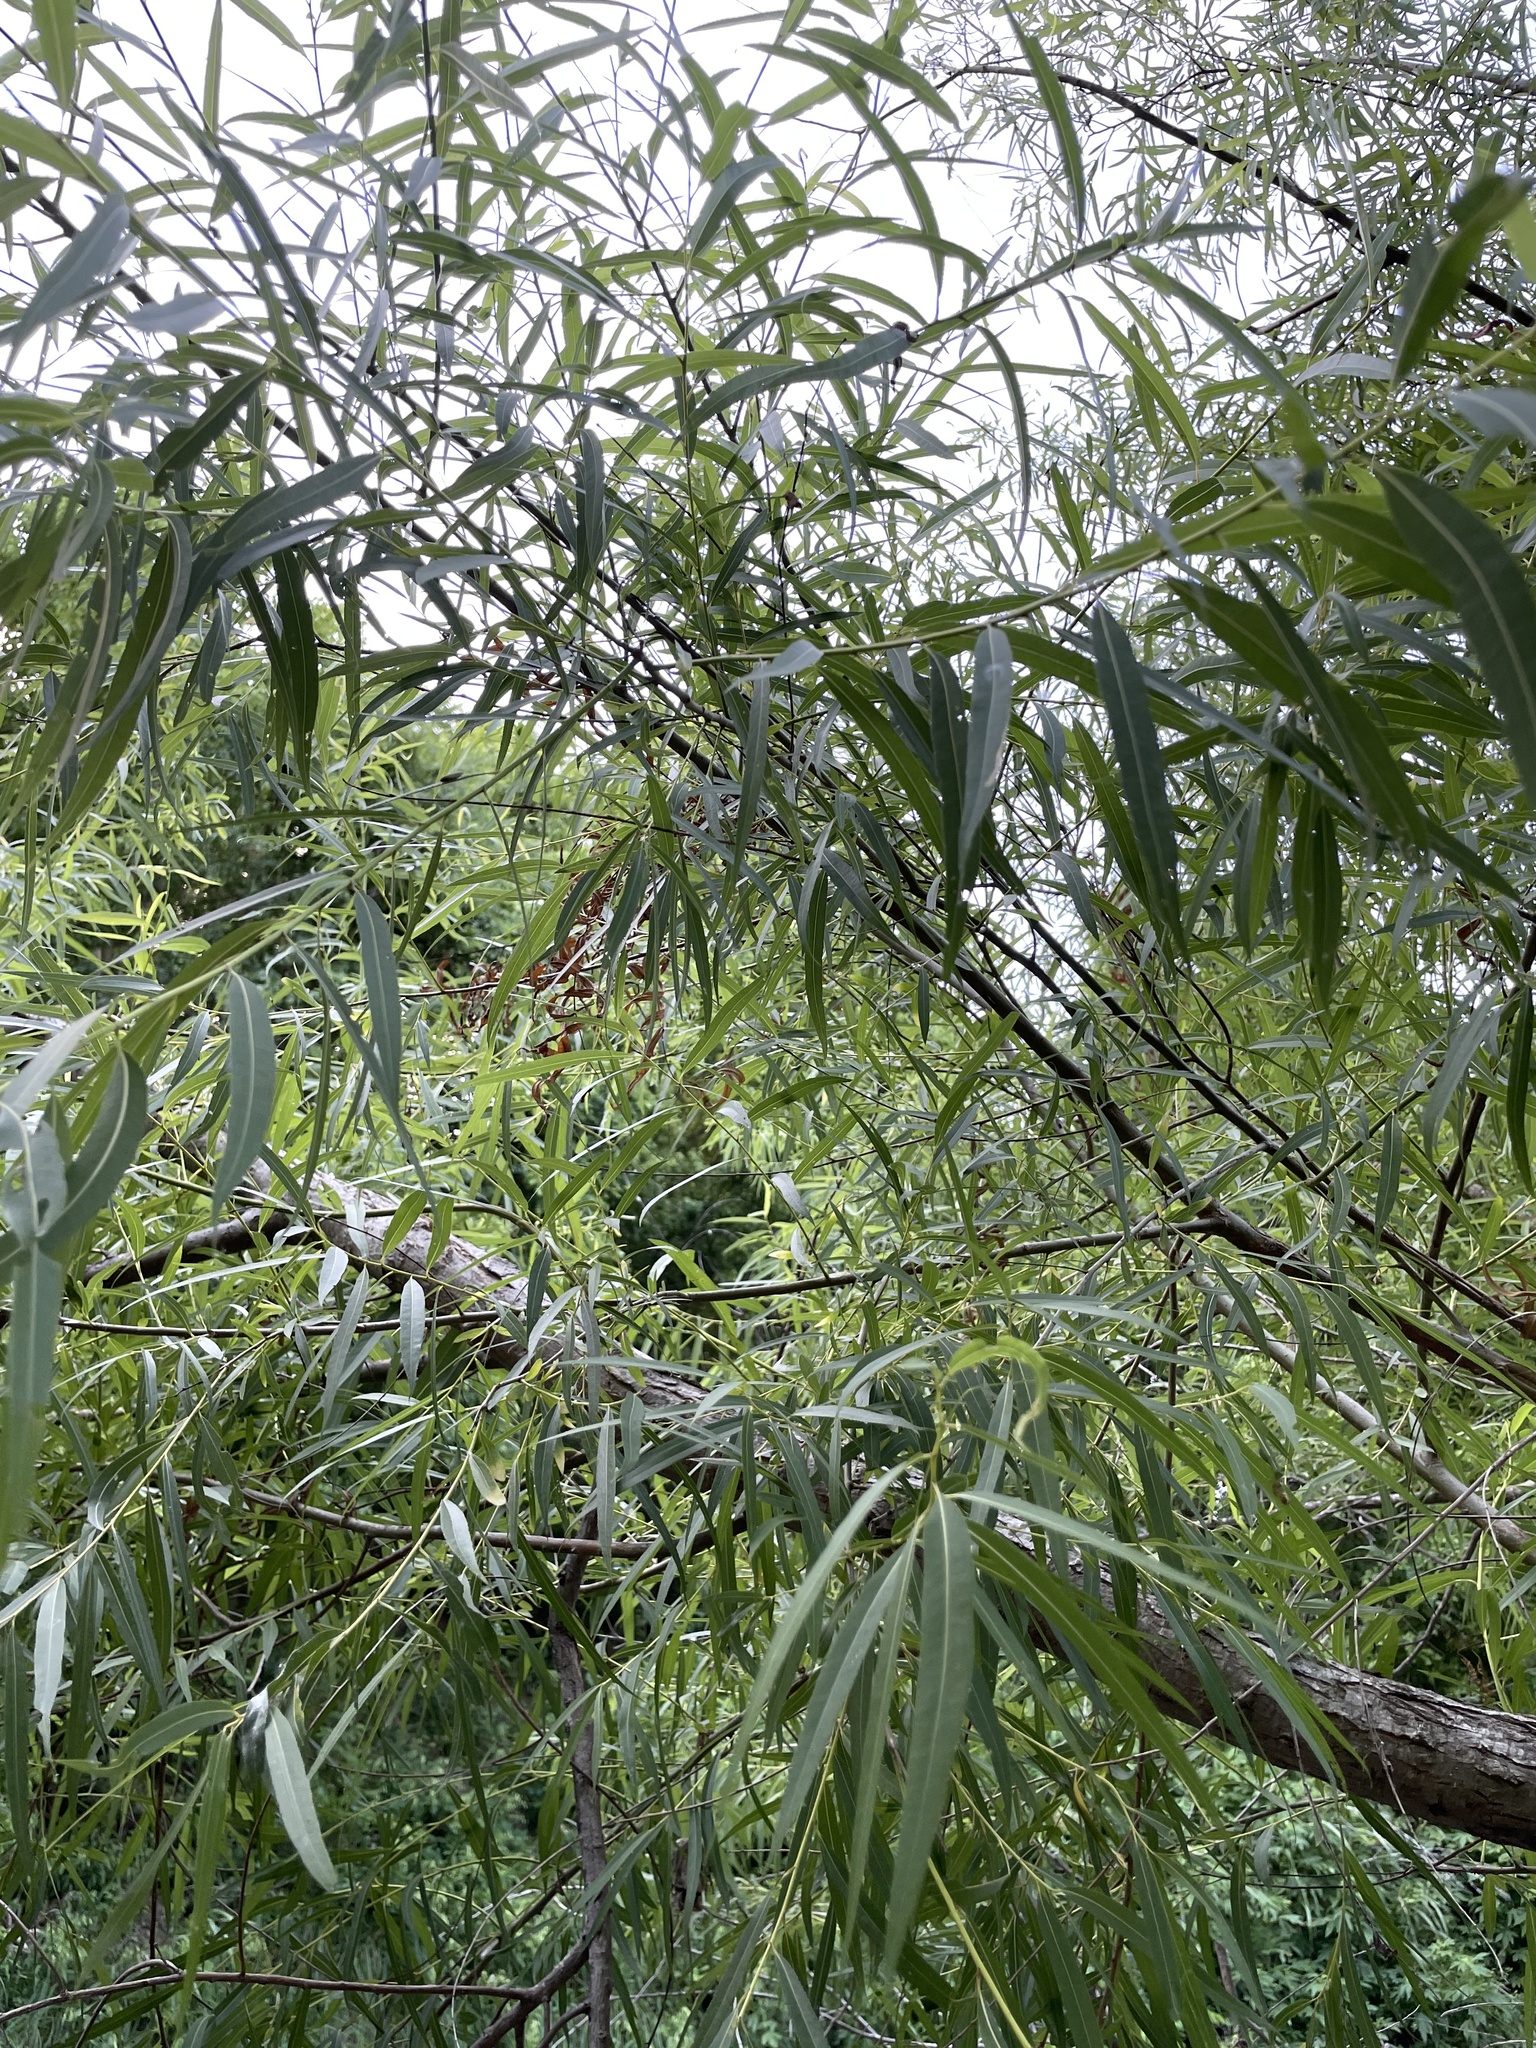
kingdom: Plantae
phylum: Tracheophyta
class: Magnoliopsida
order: Malpighiales
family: Salicaceae
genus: Salix
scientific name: Salix nigra
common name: Black willow
